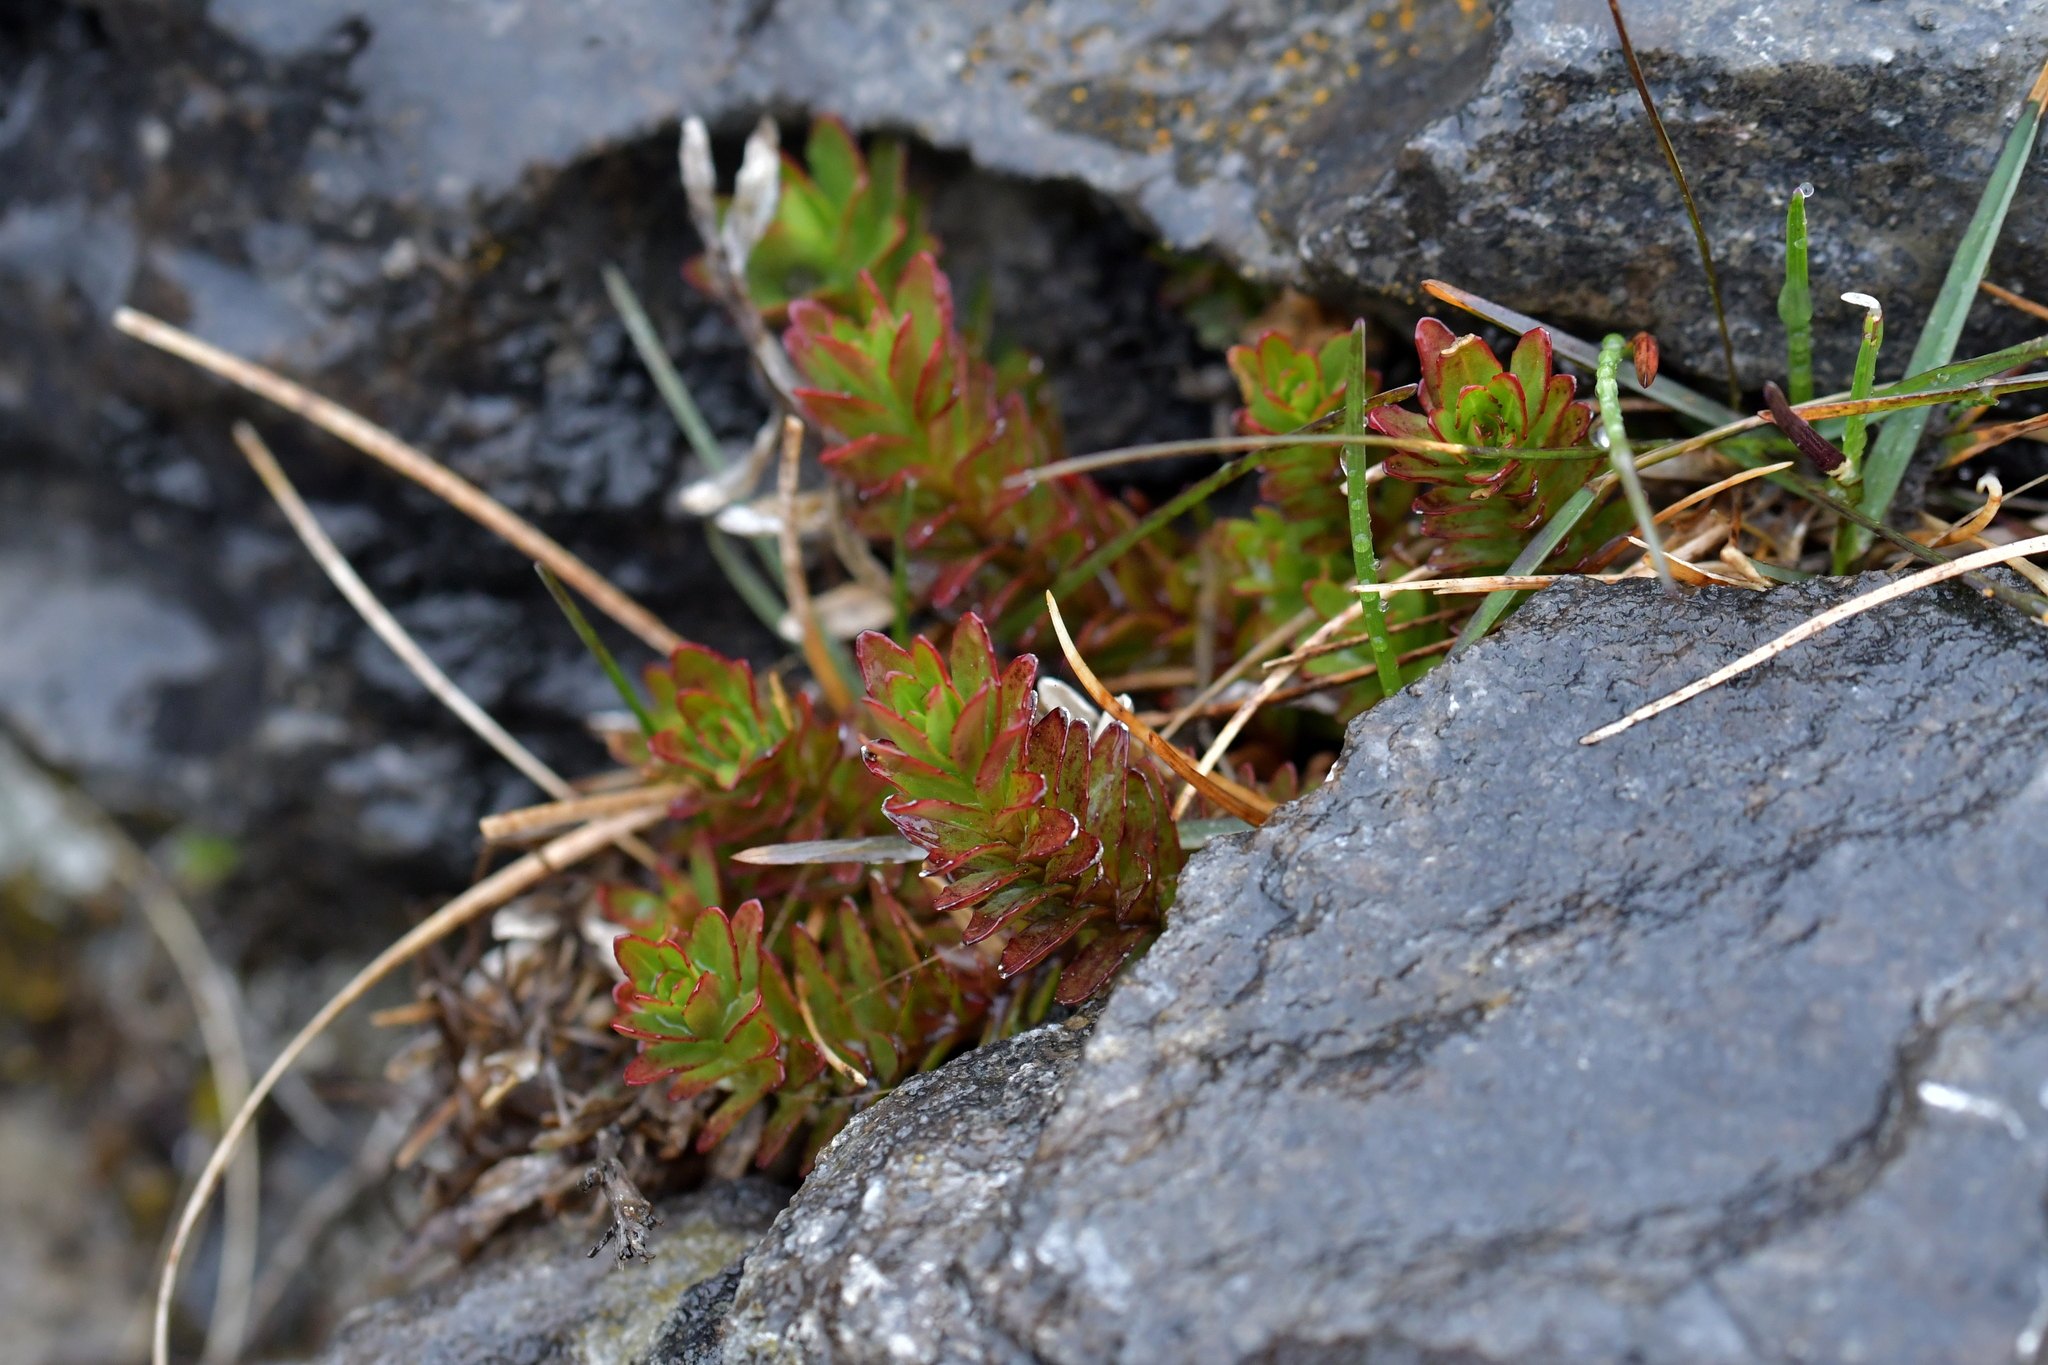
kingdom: Plantae
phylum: Tracheophyta
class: Magnoliopsida
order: Myrtales
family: Onagraceae
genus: Epilobium
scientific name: Epilobium glabellum
